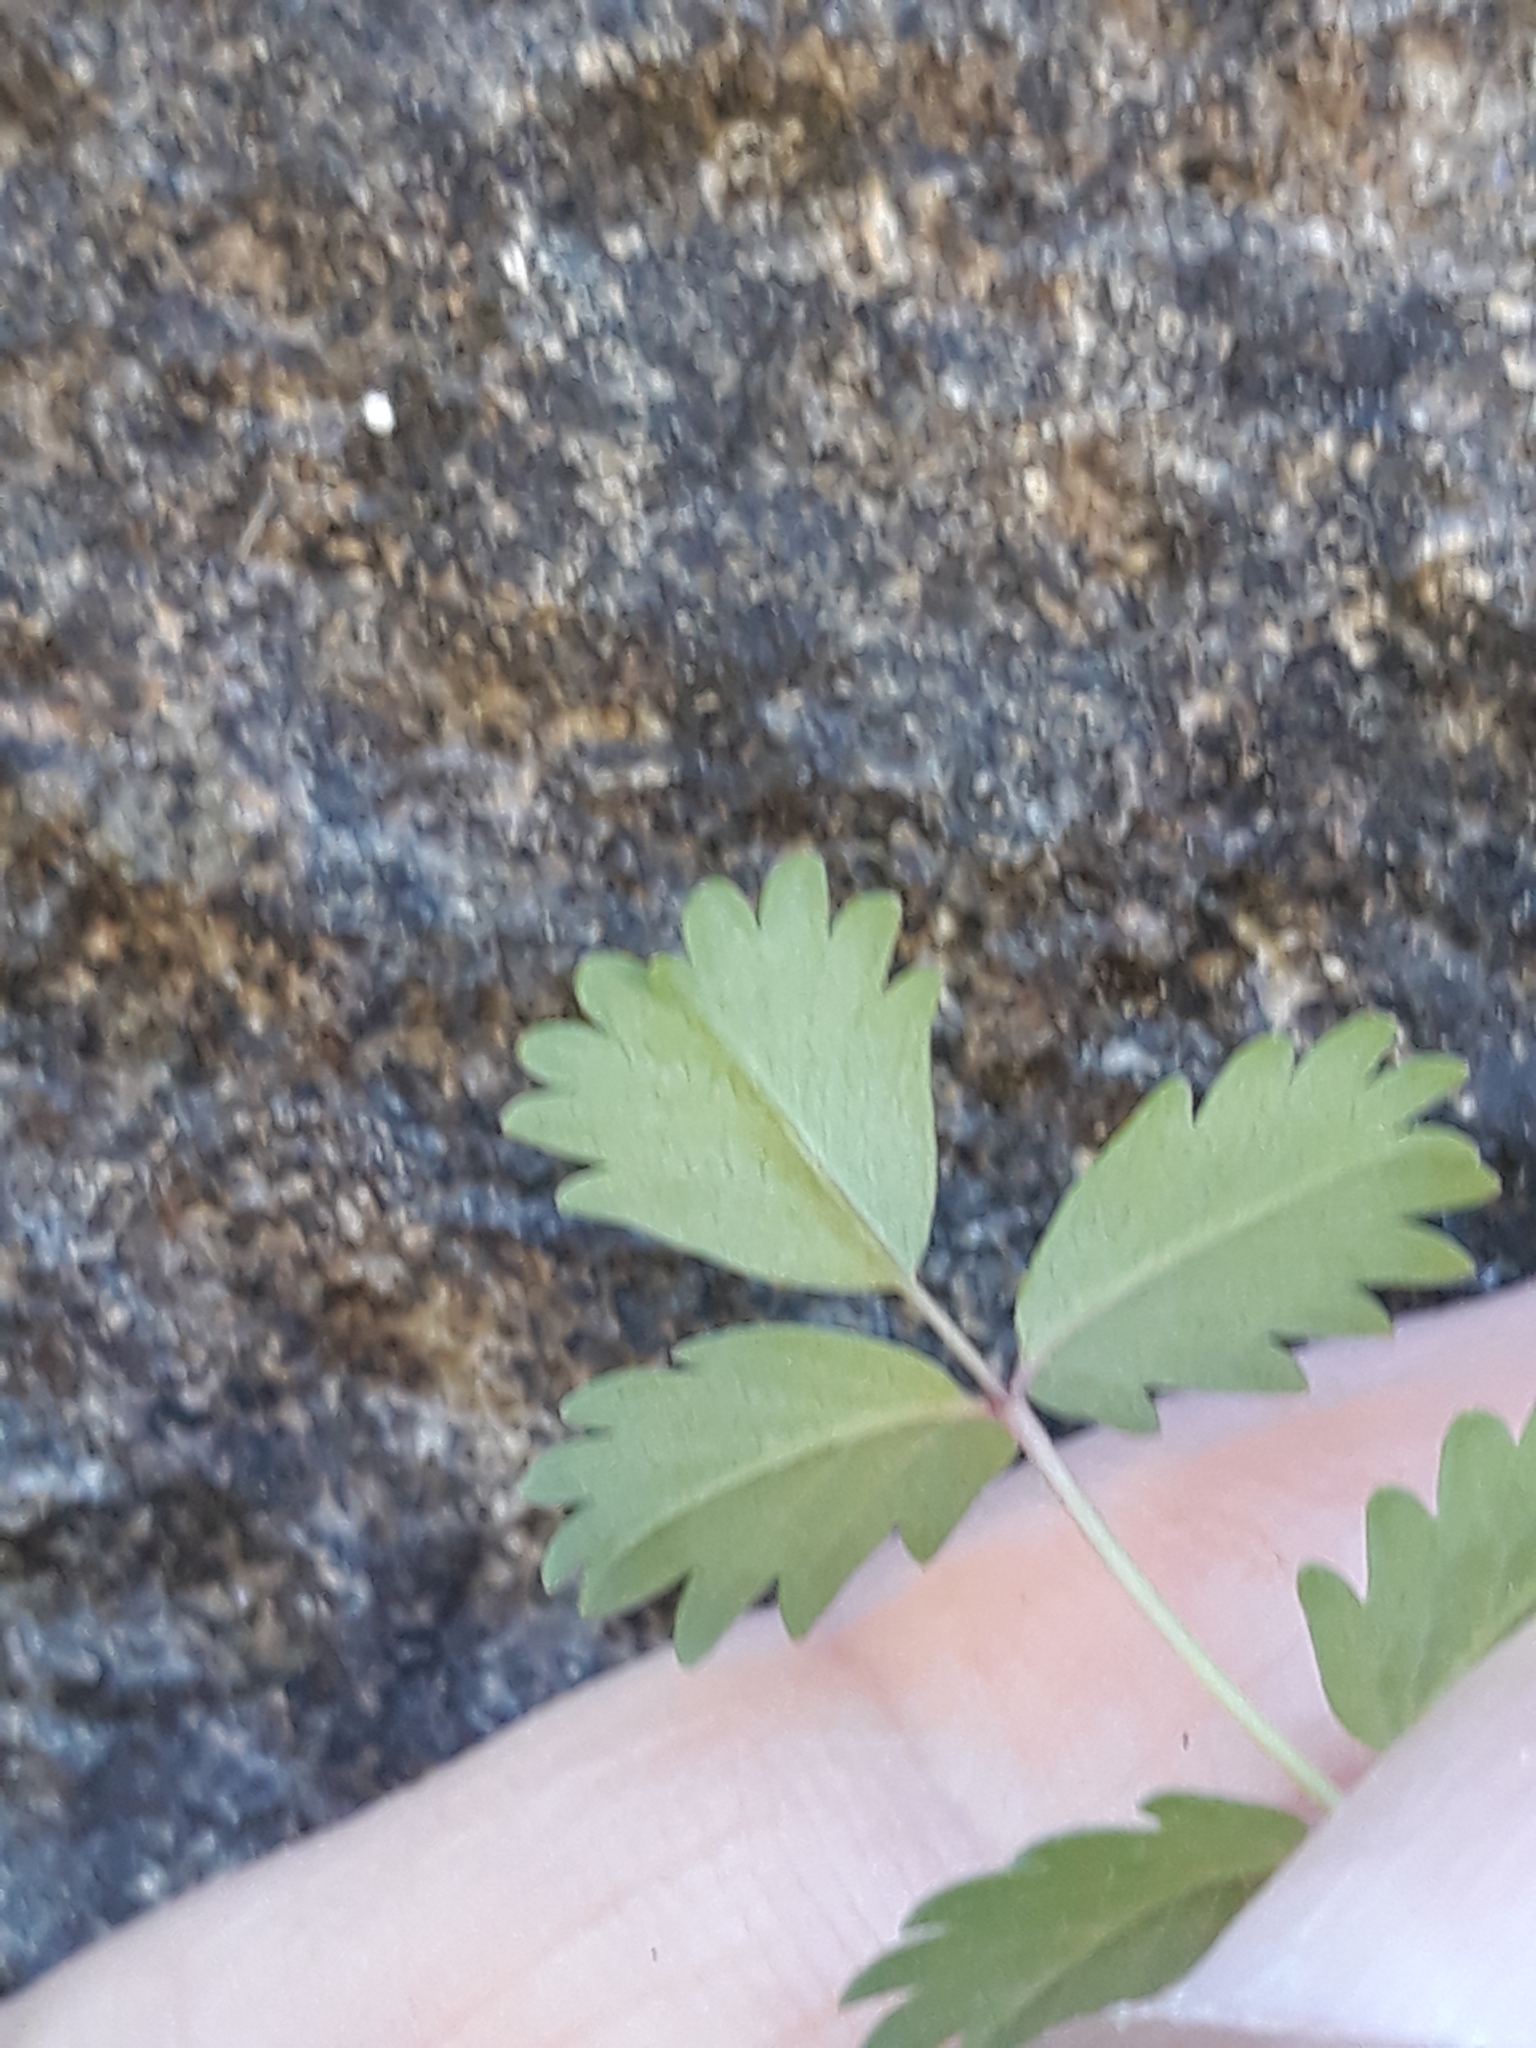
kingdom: Plantae
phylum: Tracheophyta
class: Magnoliopsida
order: Rosales
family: Rosaceae
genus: Poterium
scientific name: Poterium sanguisorba
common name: Salad burnet
